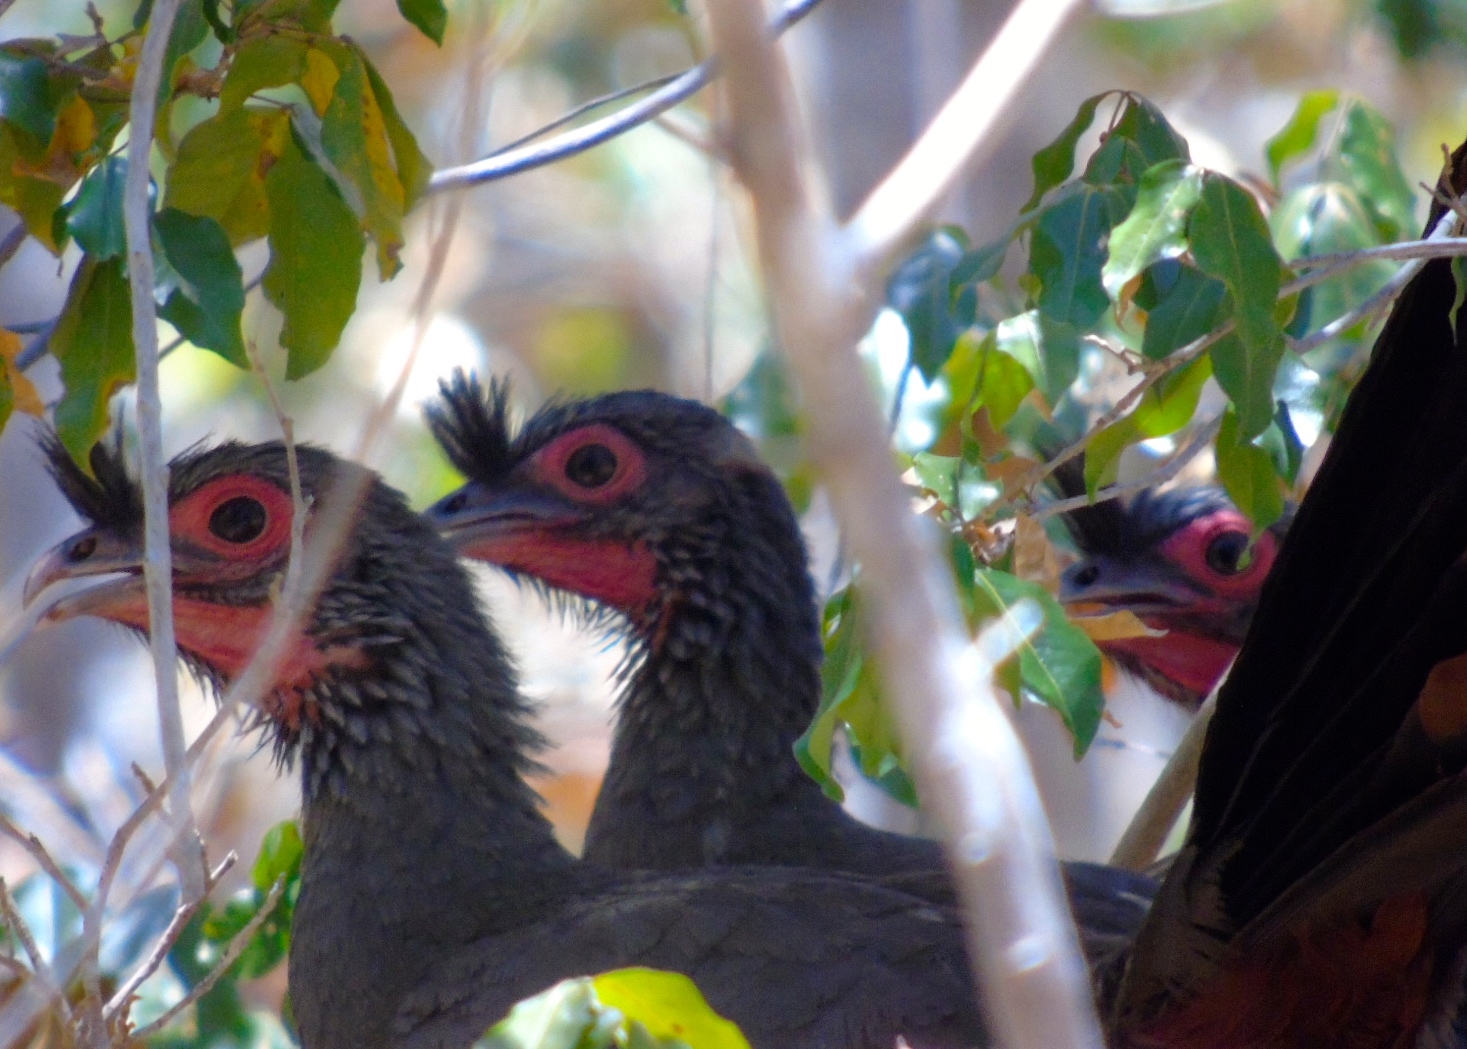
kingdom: Animalia
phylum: Chordata
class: Aves
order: Galliformes
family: Cracidae
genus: Ortalis
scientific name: Ortalis wagleri
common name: Rufous-bellied chachalaca
